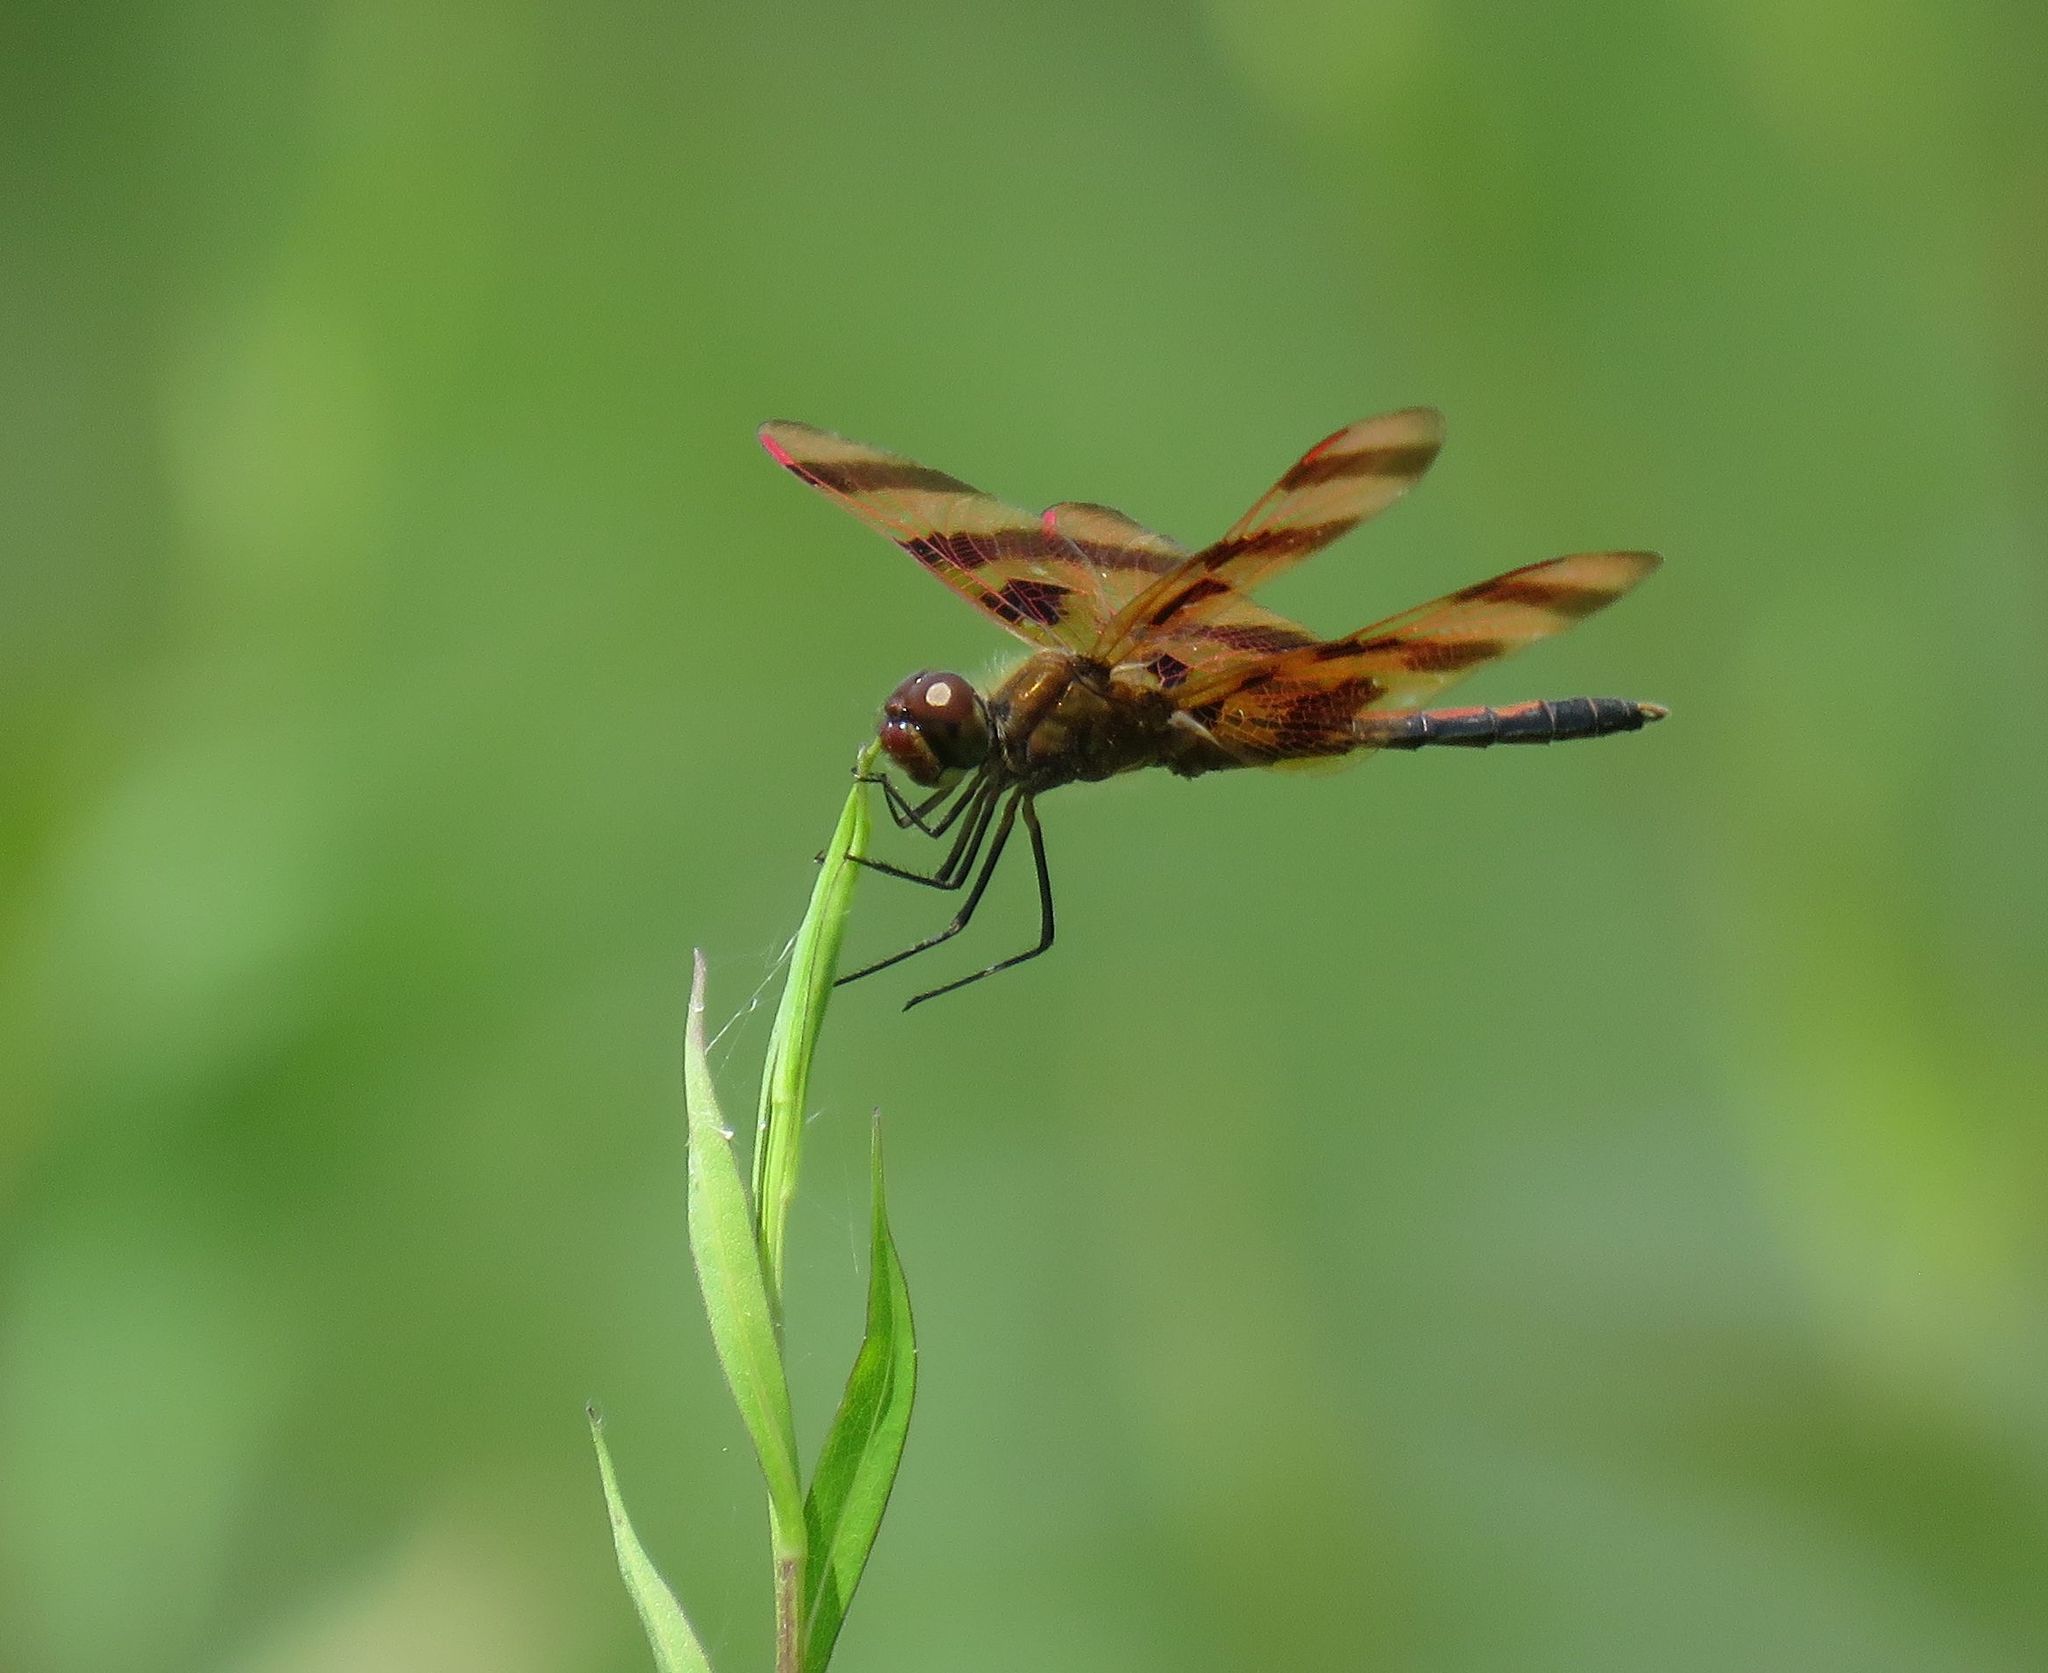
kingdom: Animalia
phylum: Arthropoda
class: Insecta
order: Odonata
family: Libellulidae
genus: Celithemis
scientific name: Celithemis eponina
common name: Halloween pennant
